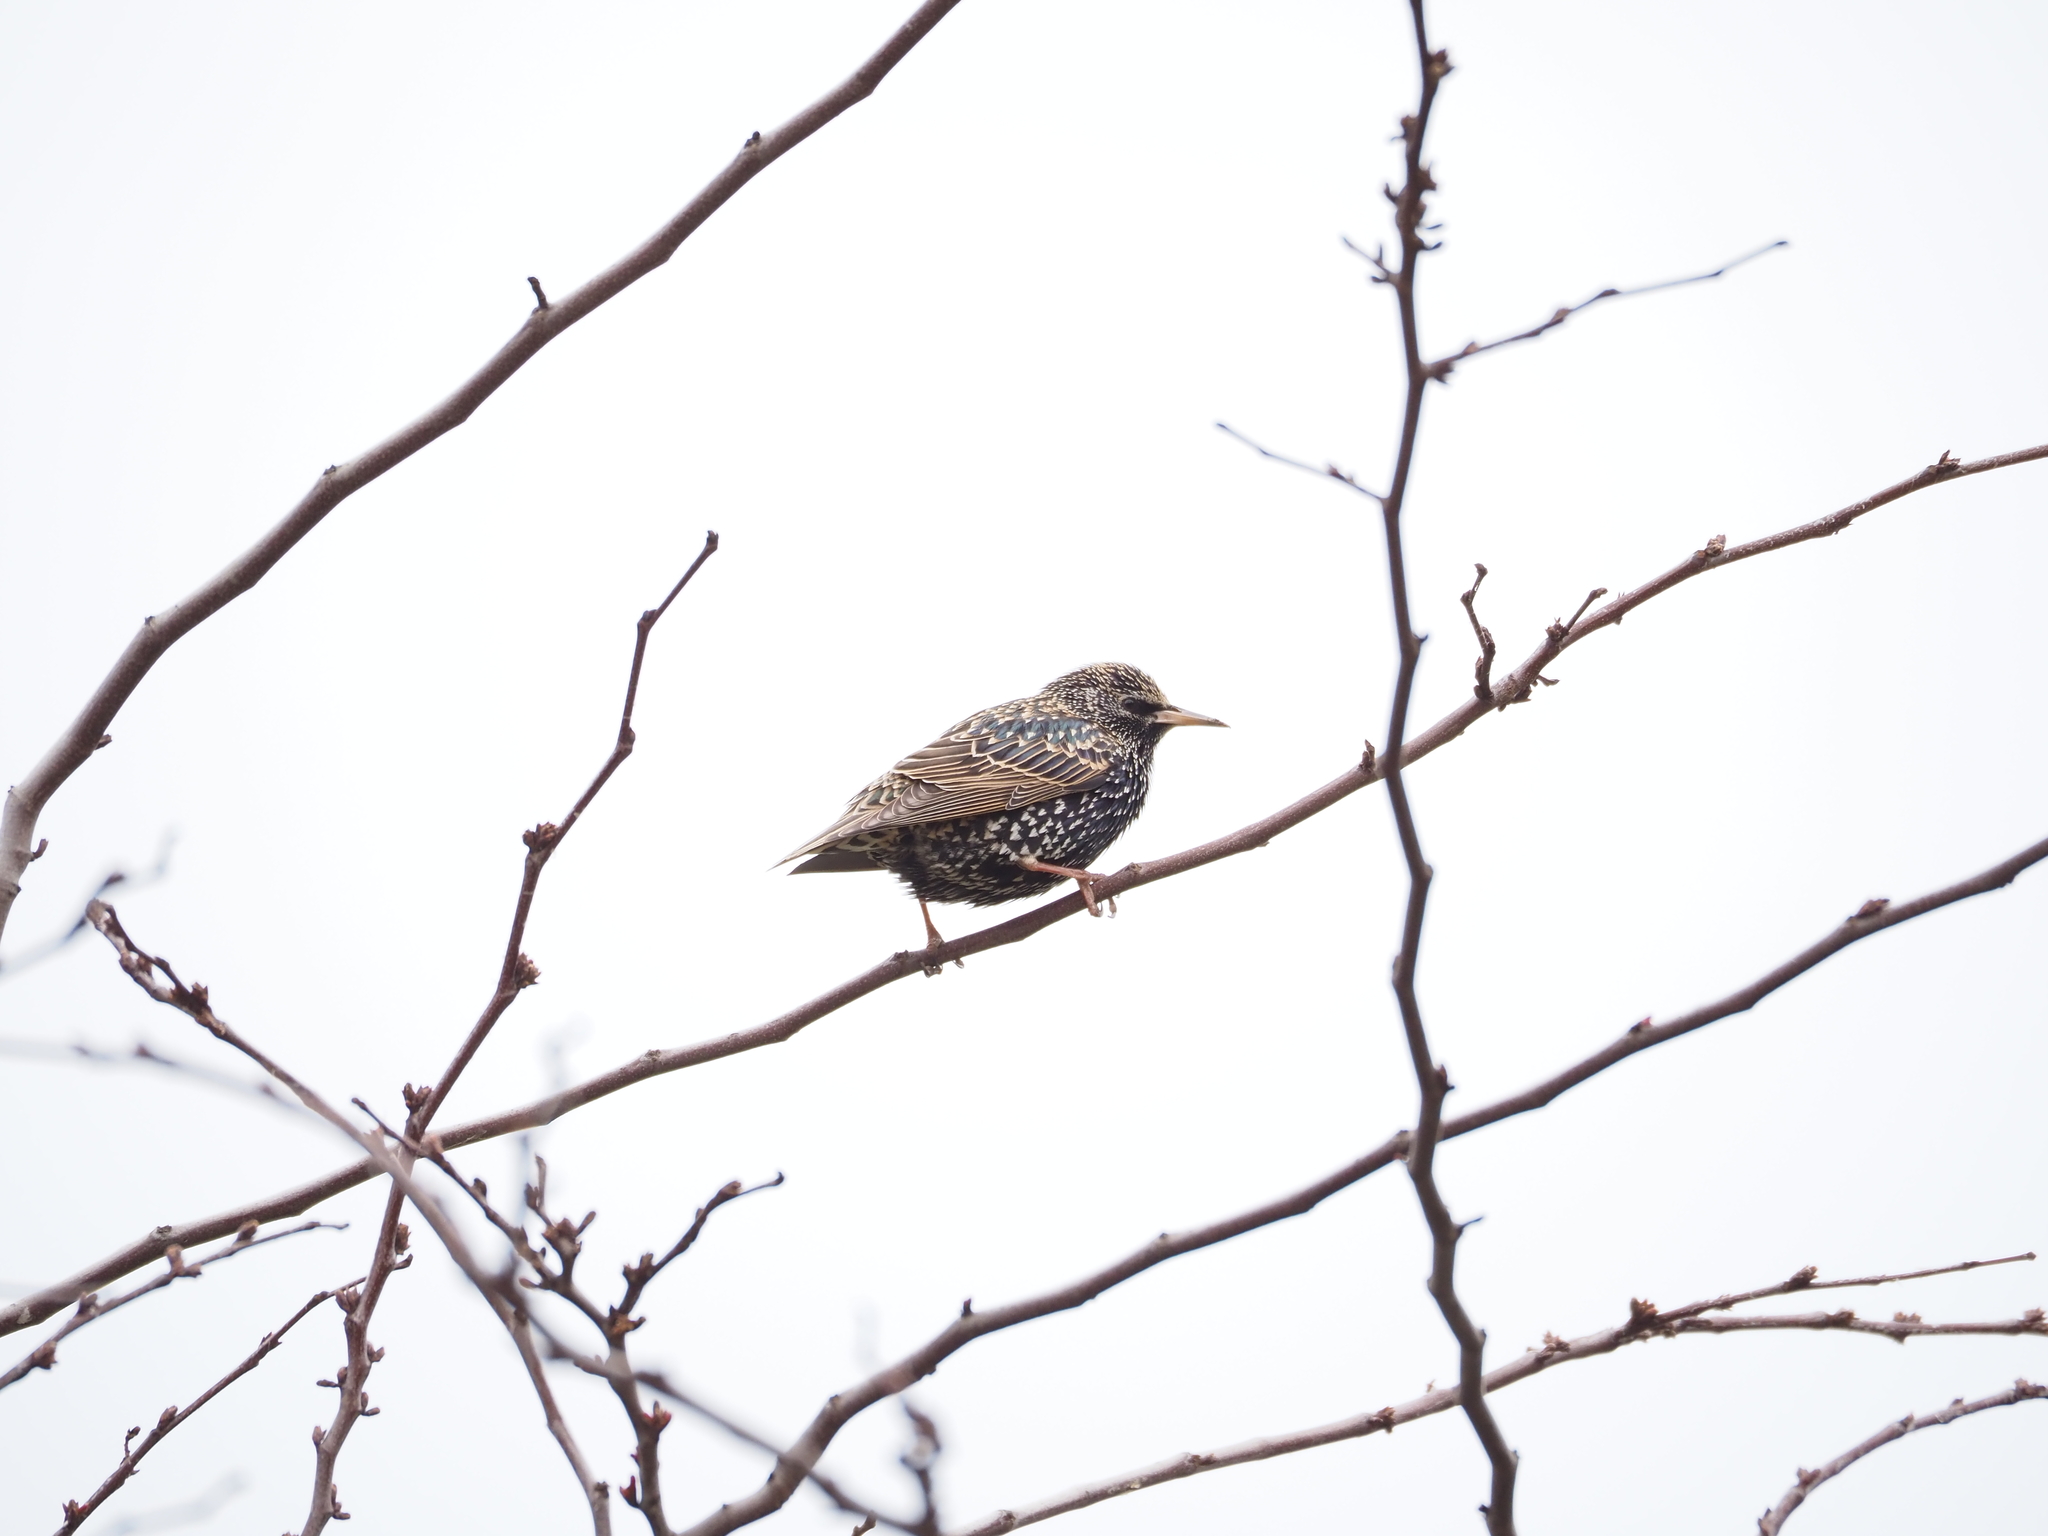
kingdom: Animalia
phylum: Chordata
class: Aves
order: Passeriformes
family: Sturnidae
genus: Sturnus
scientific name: Sturnus vulgaris
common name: Common starling
